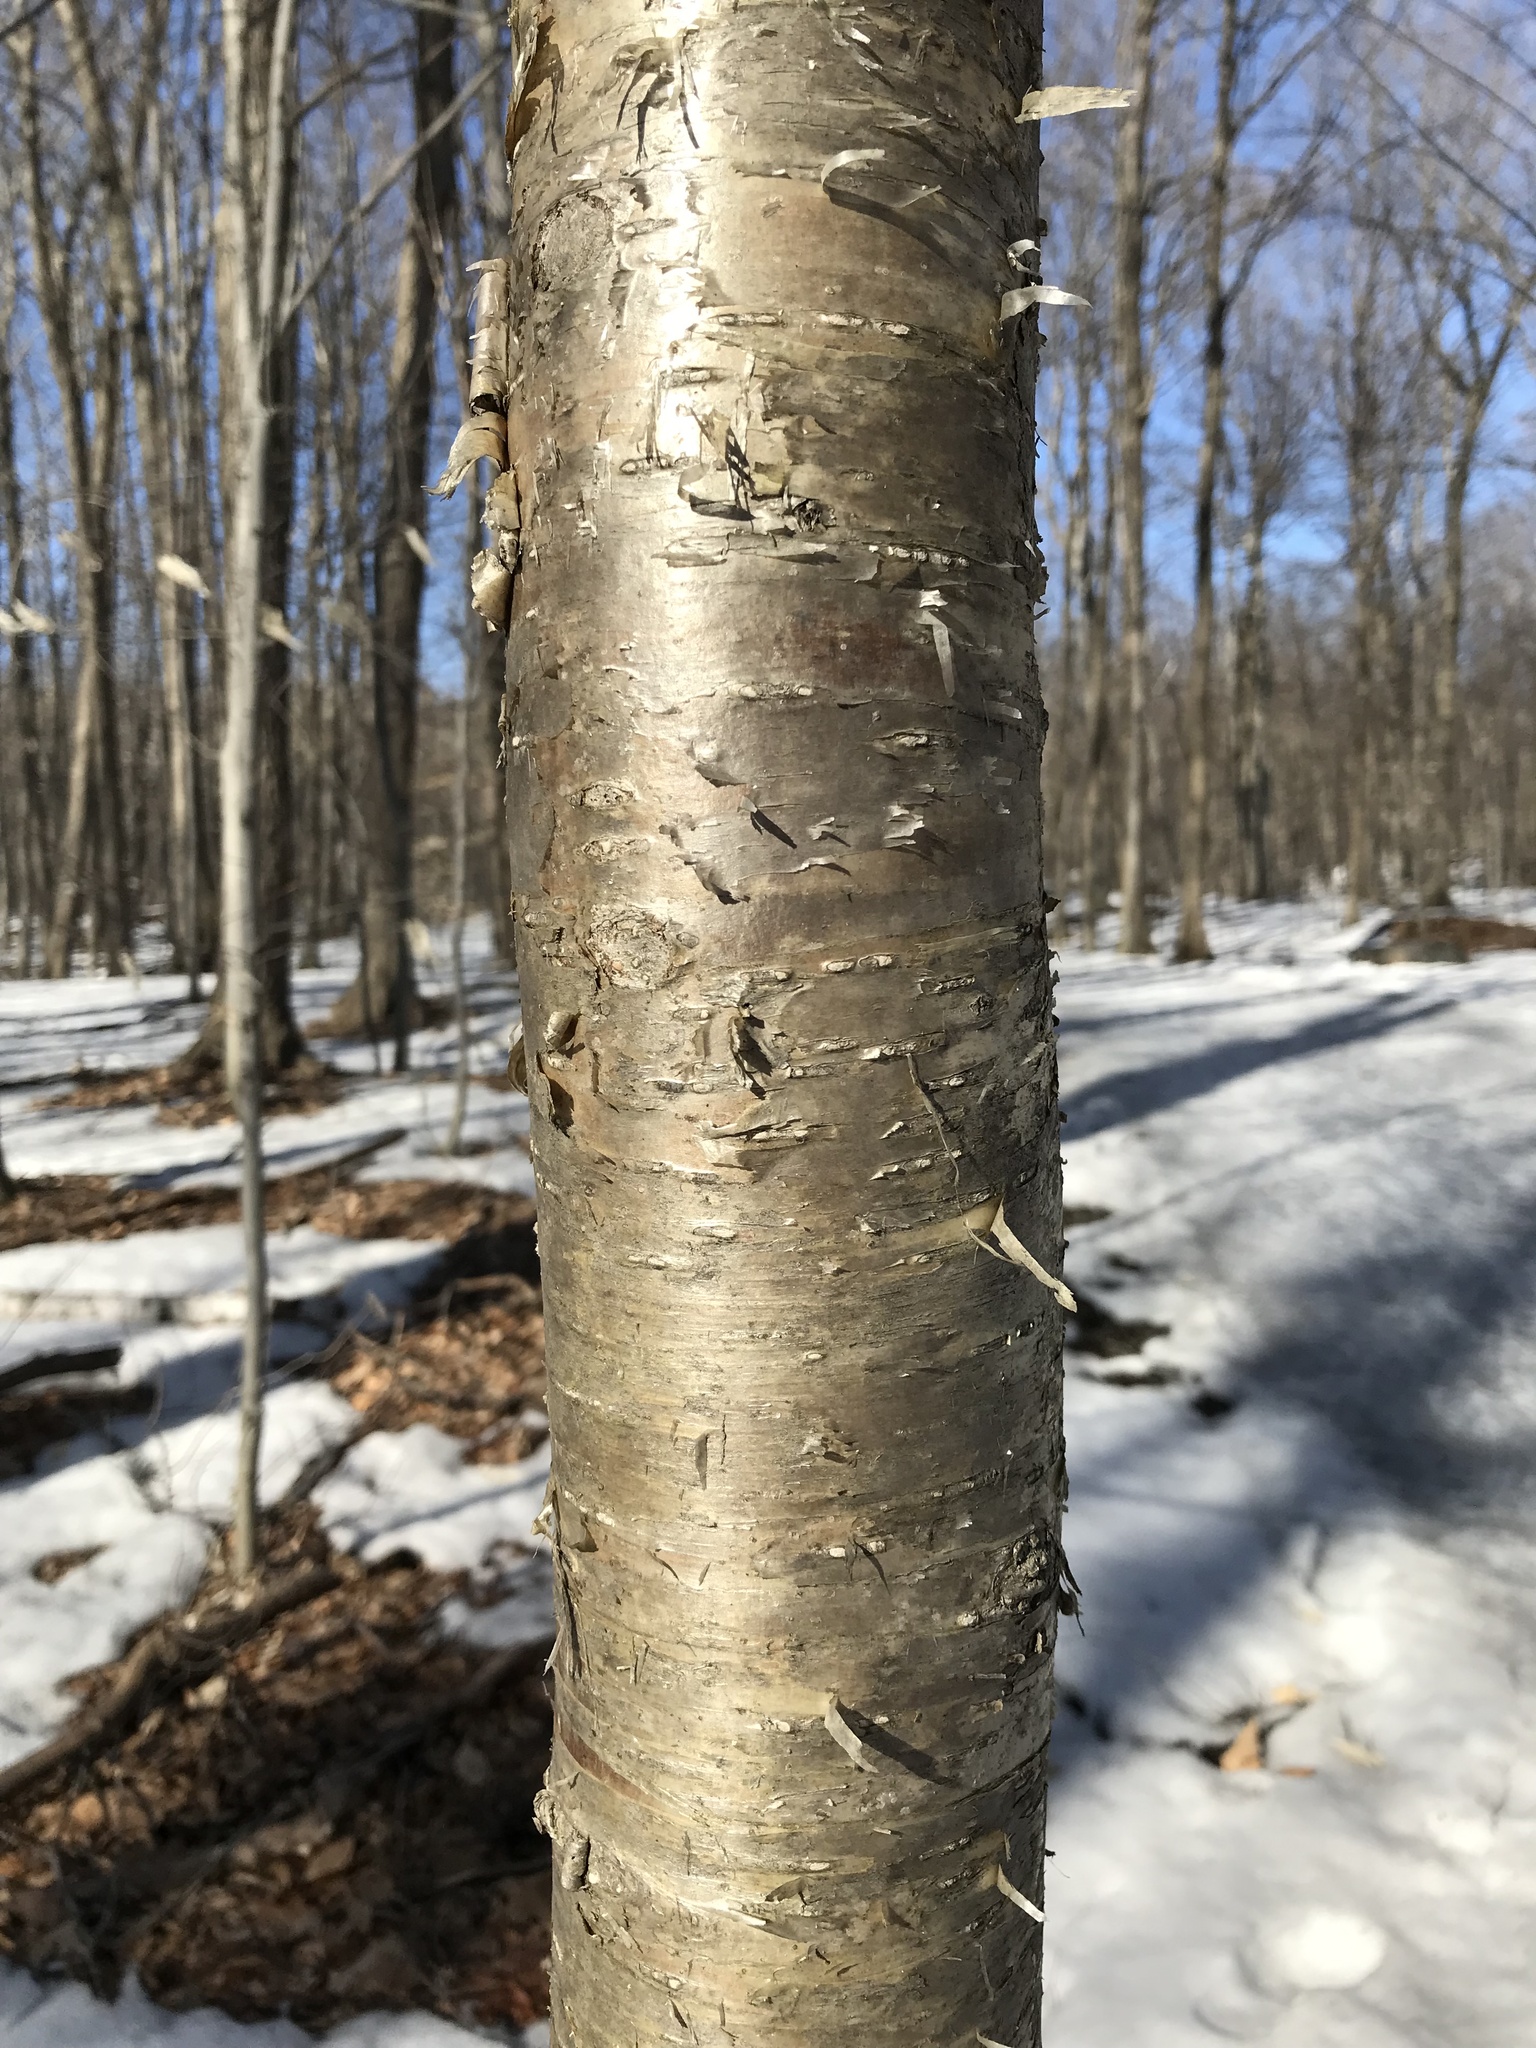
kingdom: Plantae
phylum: Tracheophyta
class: Magnoliopsida
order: Fagales
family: Betulaceae
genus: Betula
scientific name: Betula alleghaniensis
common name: Yellow birch
